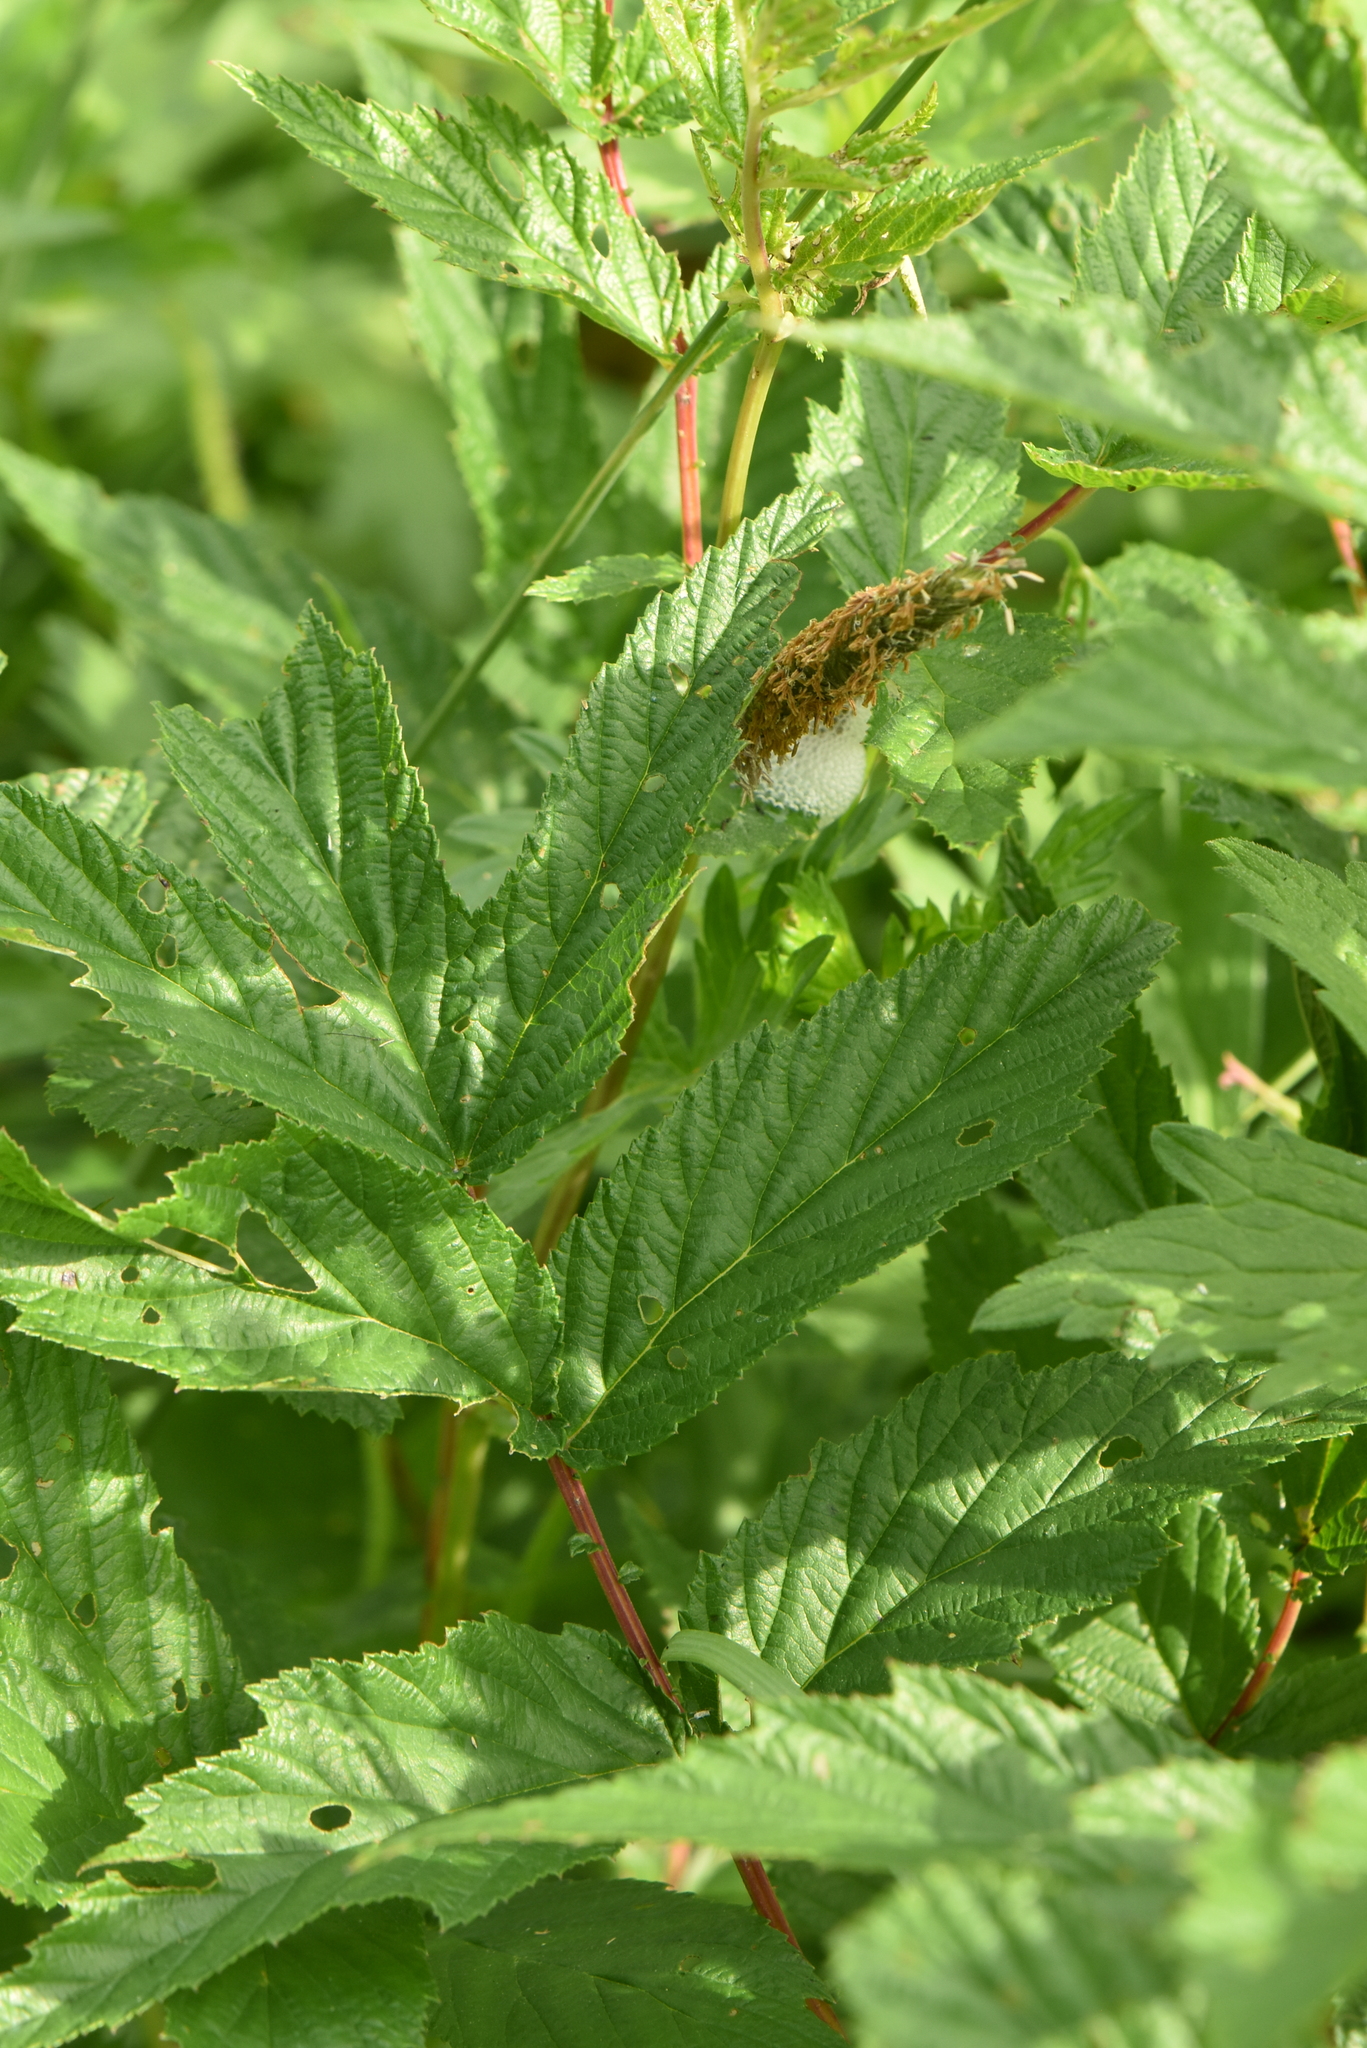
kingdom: Plantae
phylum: Tracheophyta
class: Magnoliopsida
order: Rosales
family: Rosaceae
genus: Filipendula
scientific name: Filipendula ulmaria
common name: Meadowsweet
